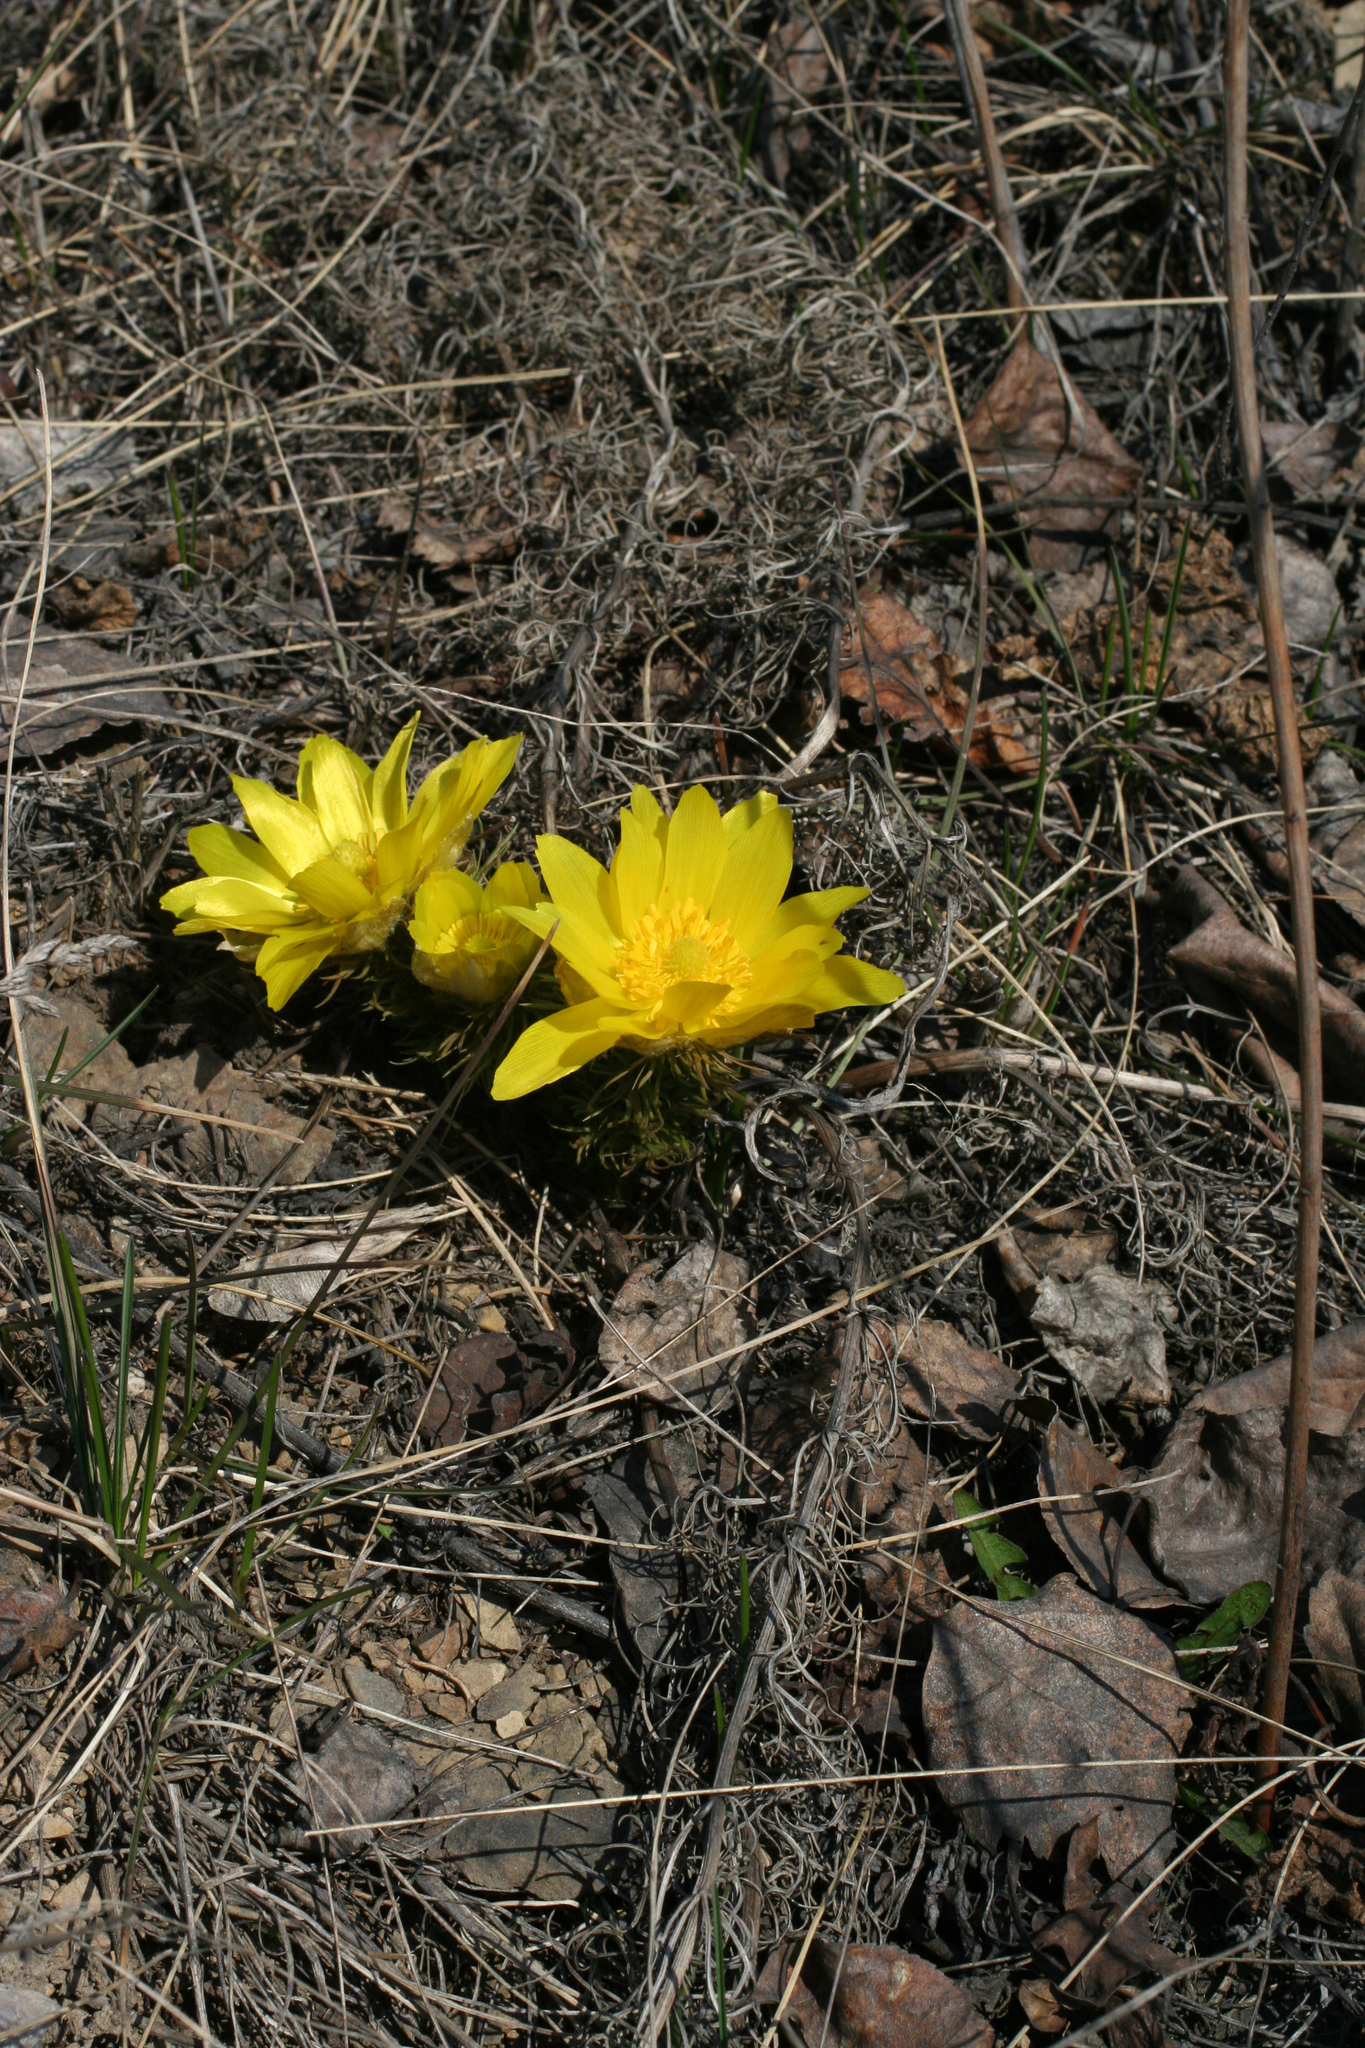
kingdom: Plantae
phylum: Tracheophyta
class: Magnoliopsida
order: Ranunculales
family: Ranunculaceae
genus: Adonis
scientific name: Adonis vernalis
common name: Yellow pheasants-eye
